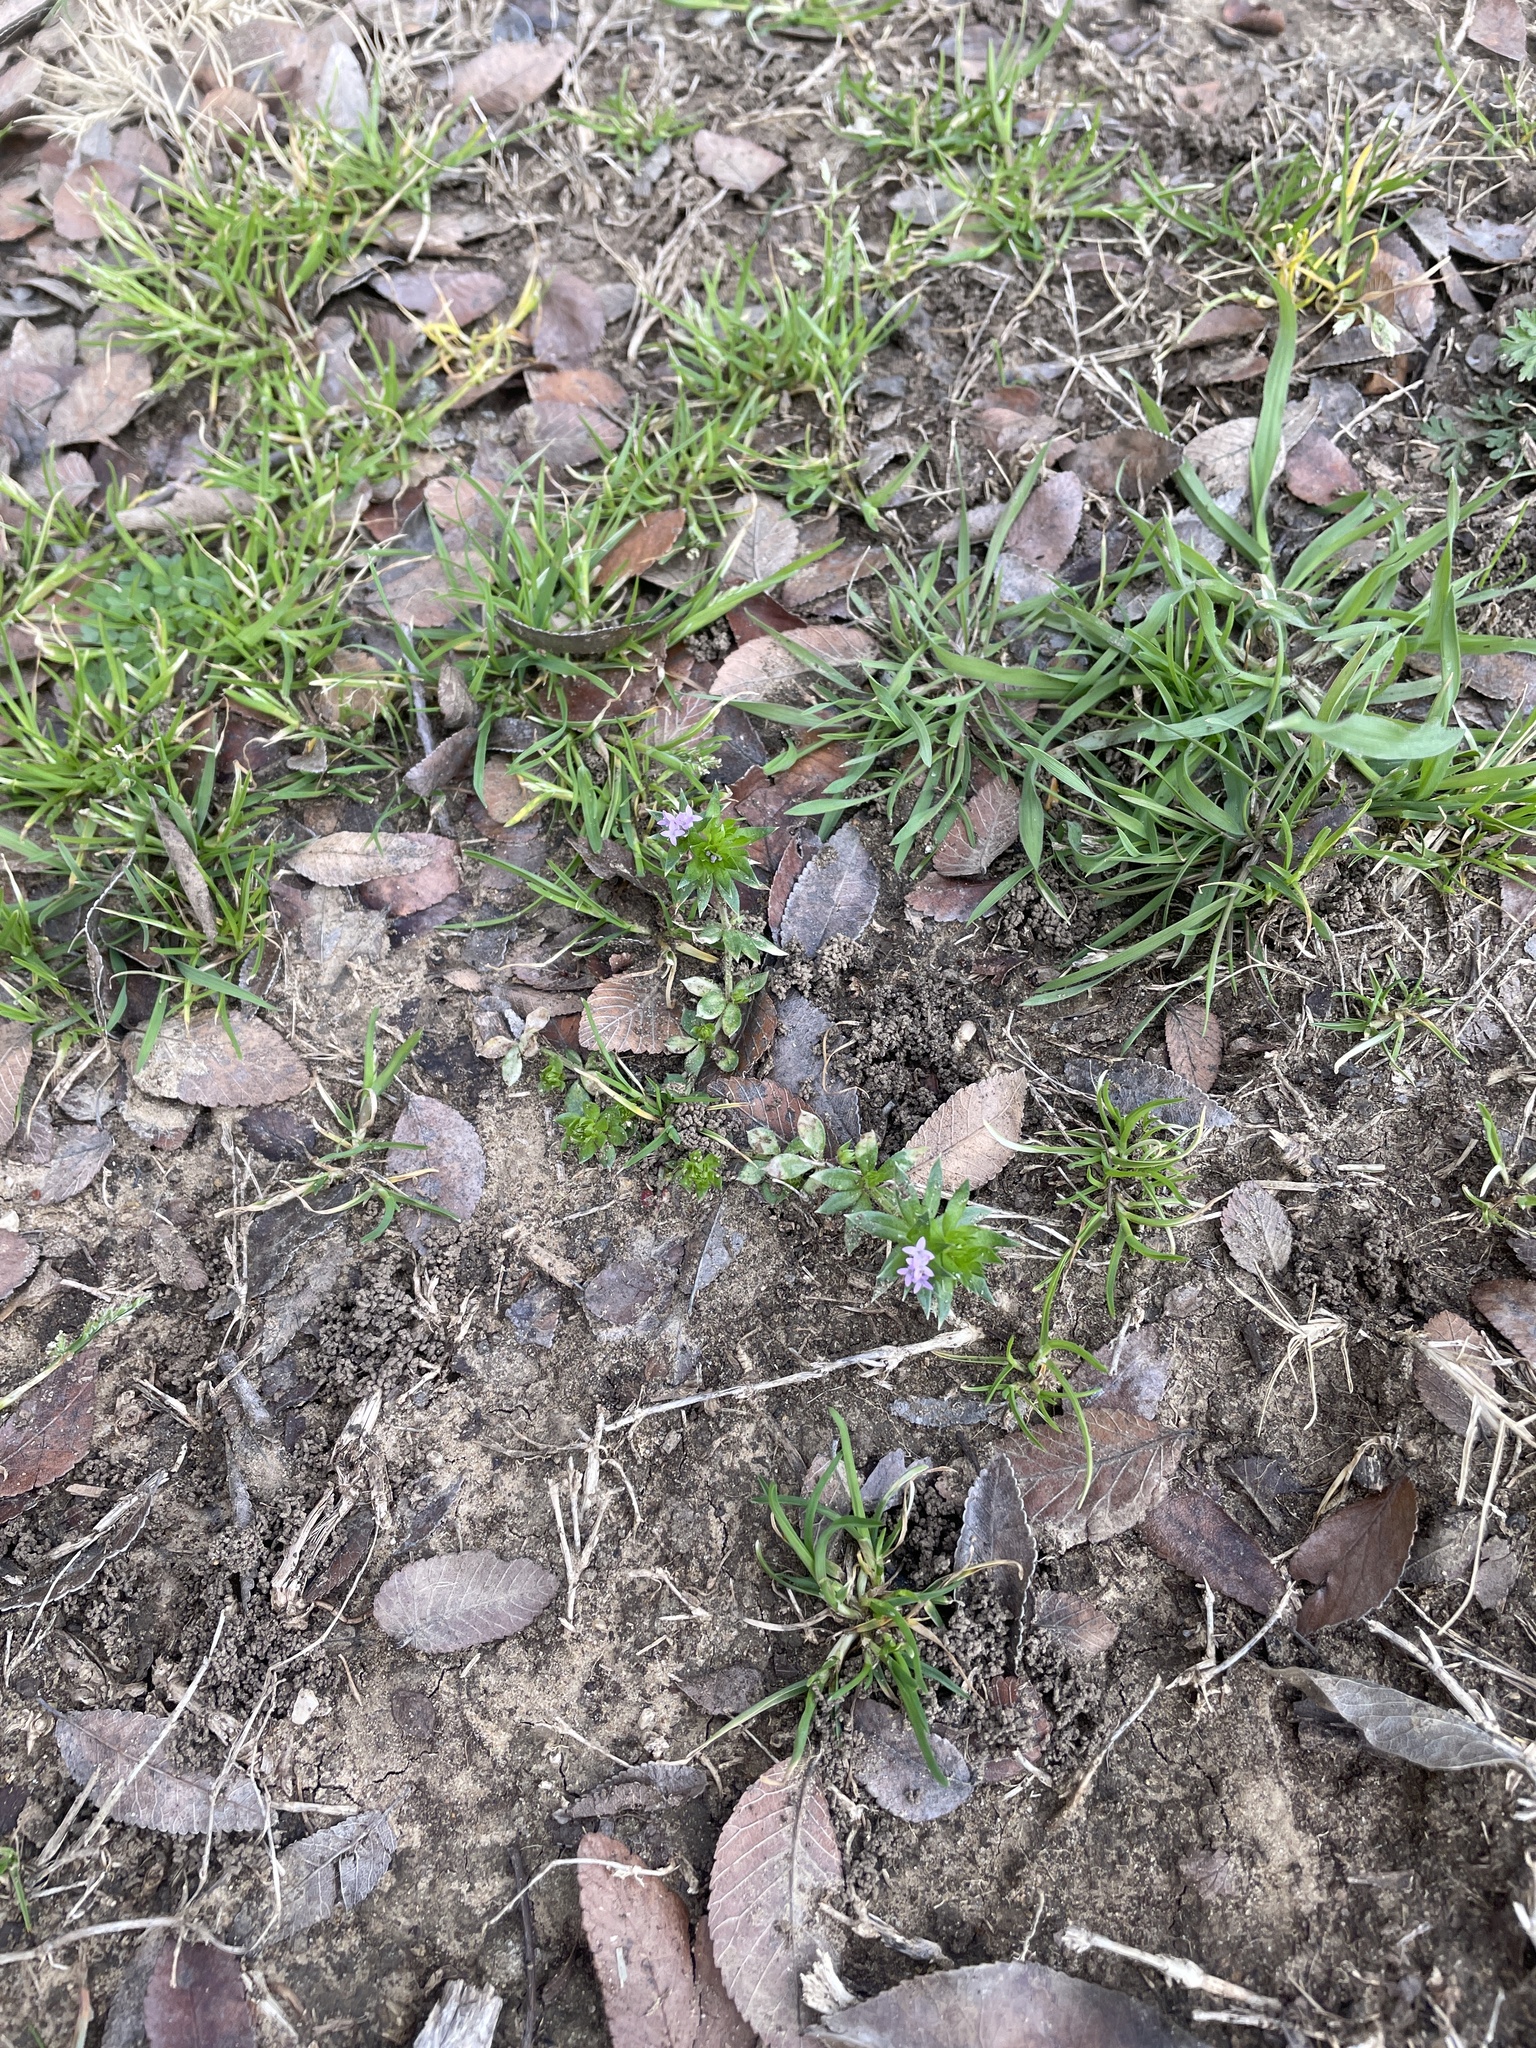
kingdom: Plantae
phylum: Tracheophyta
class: Magnoliopsida
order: Gentianales
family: Rubiaceae
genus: Sherardia
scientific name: Sherardia arvensis
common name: Field madder
